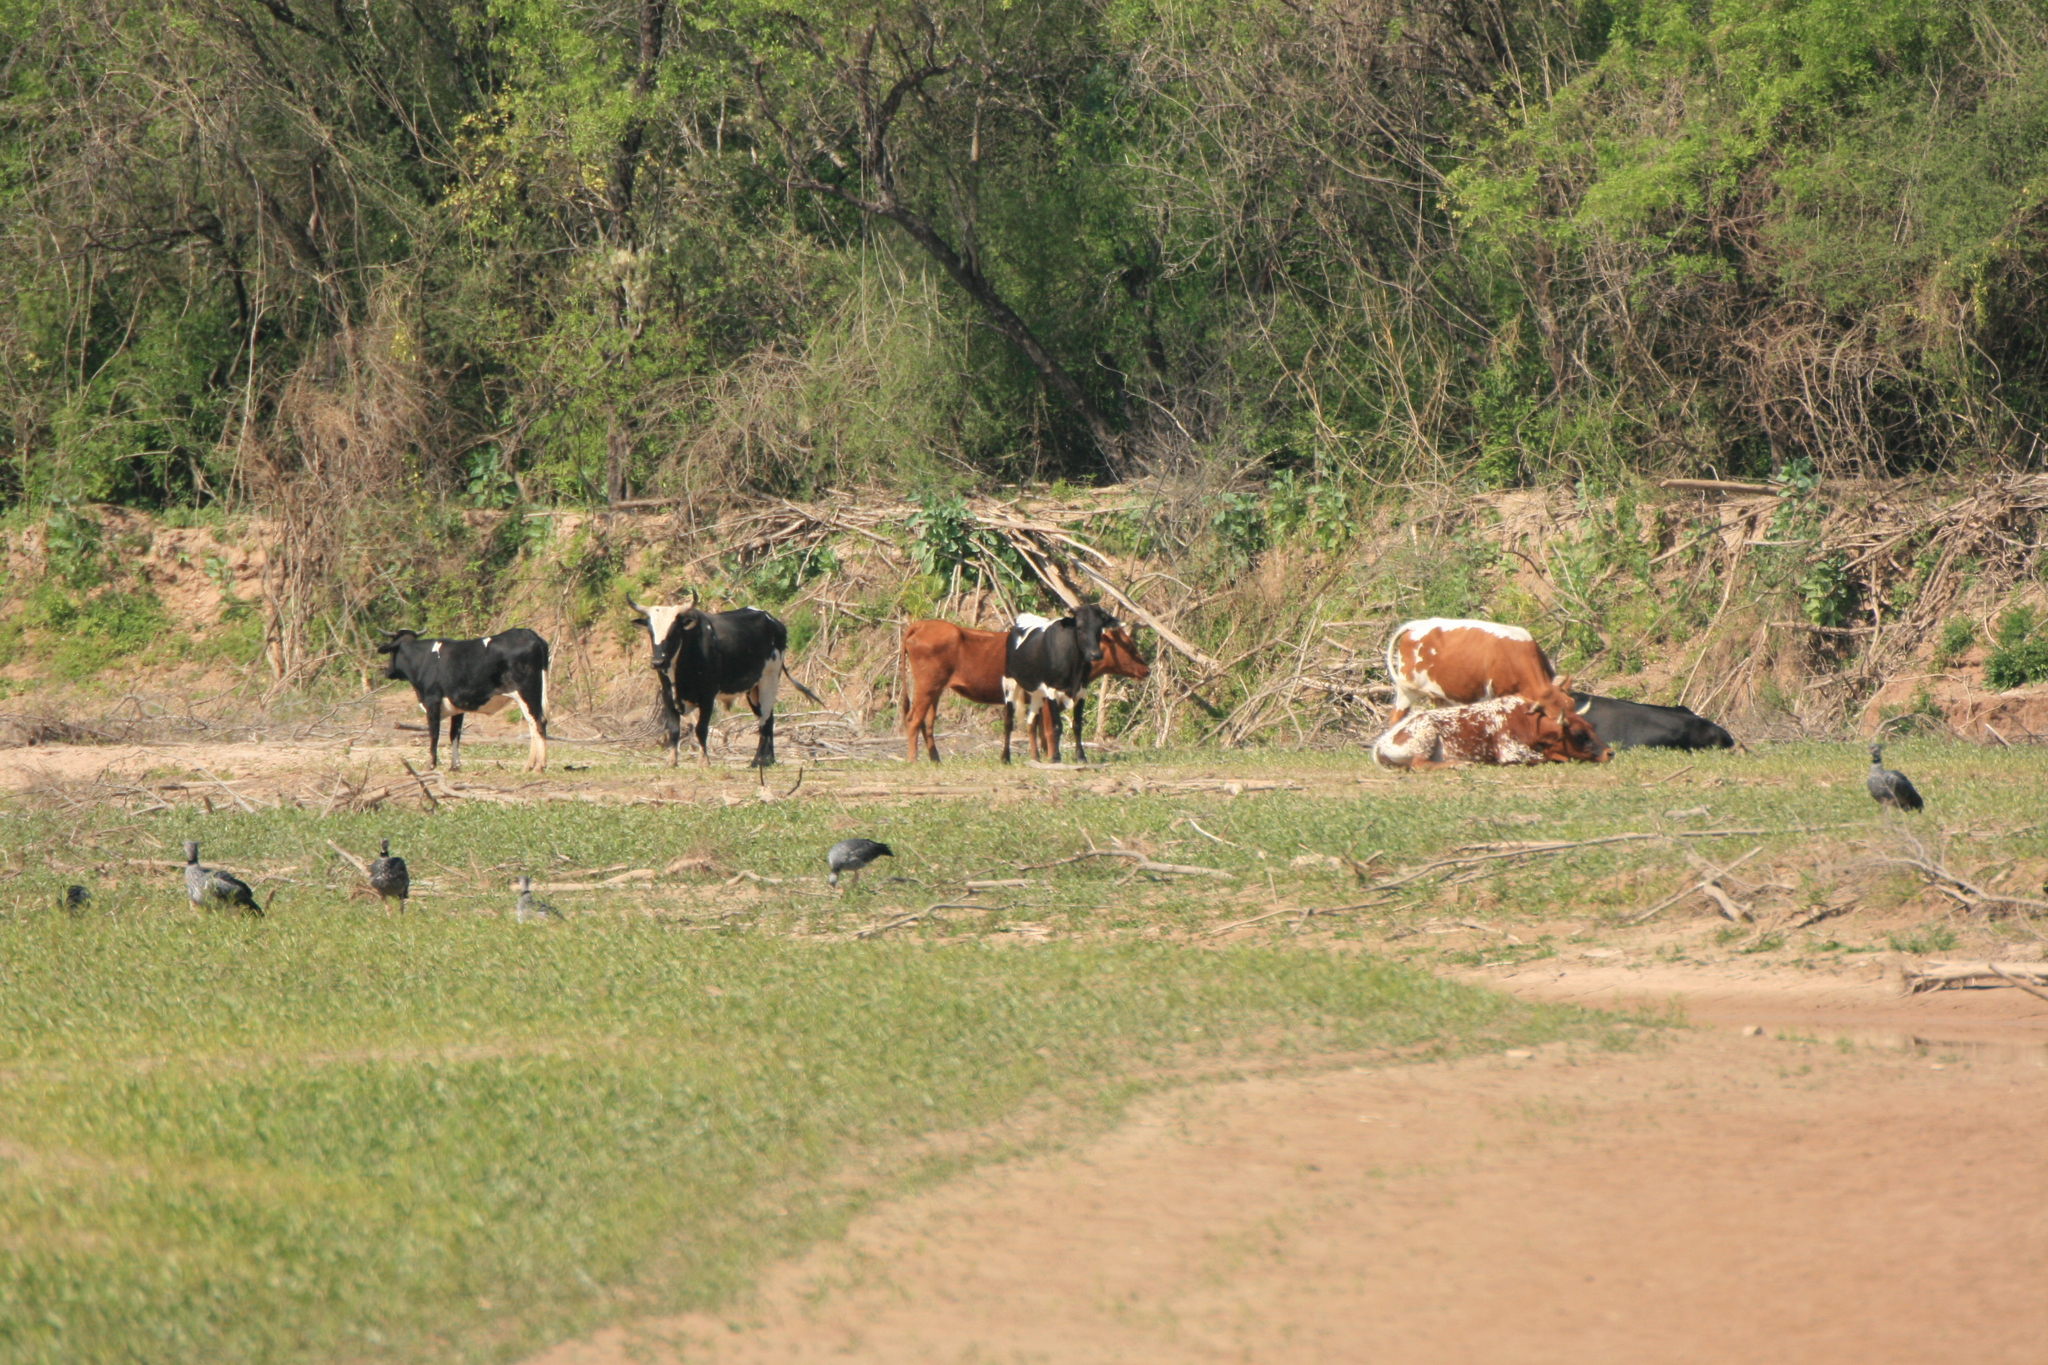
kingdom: Animalia
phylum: Chordata
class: Aves
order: Anseriformes
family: Anhimidae
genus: Chauna
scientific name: Chauna torquata
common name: Southern screamer
